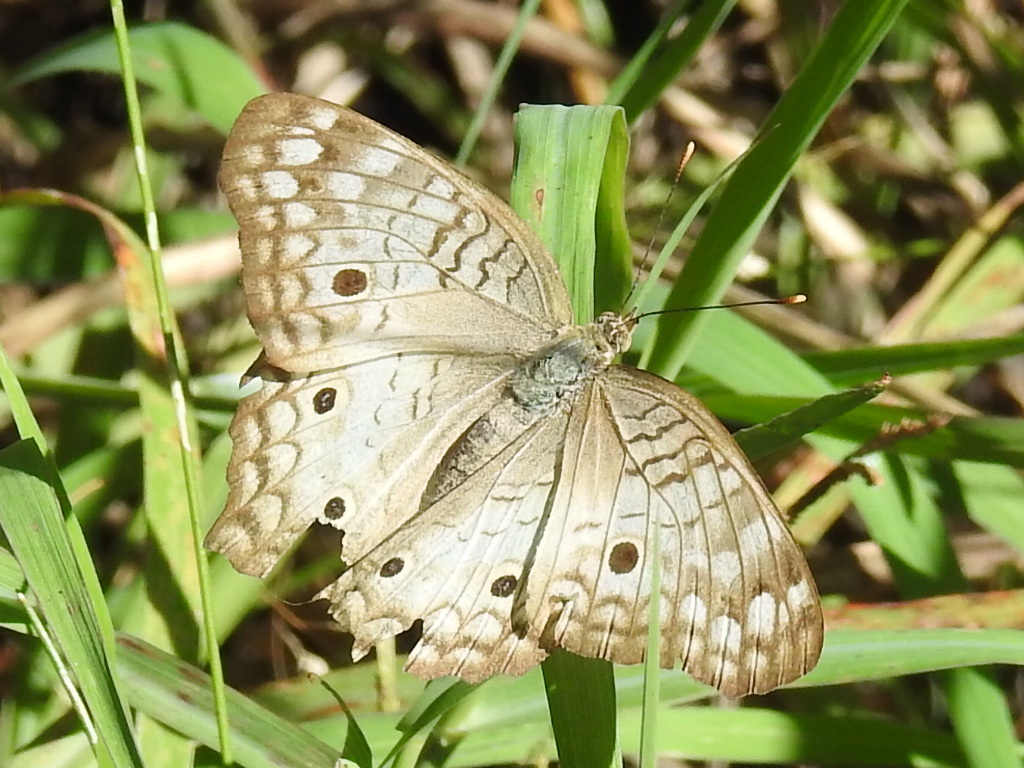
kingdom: Animalia
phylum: Arthropoda
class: Insecta
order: Lepidoptera
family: Nymphalidae
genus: Anartia
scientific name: Anartia jatrophae
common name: White peacock
